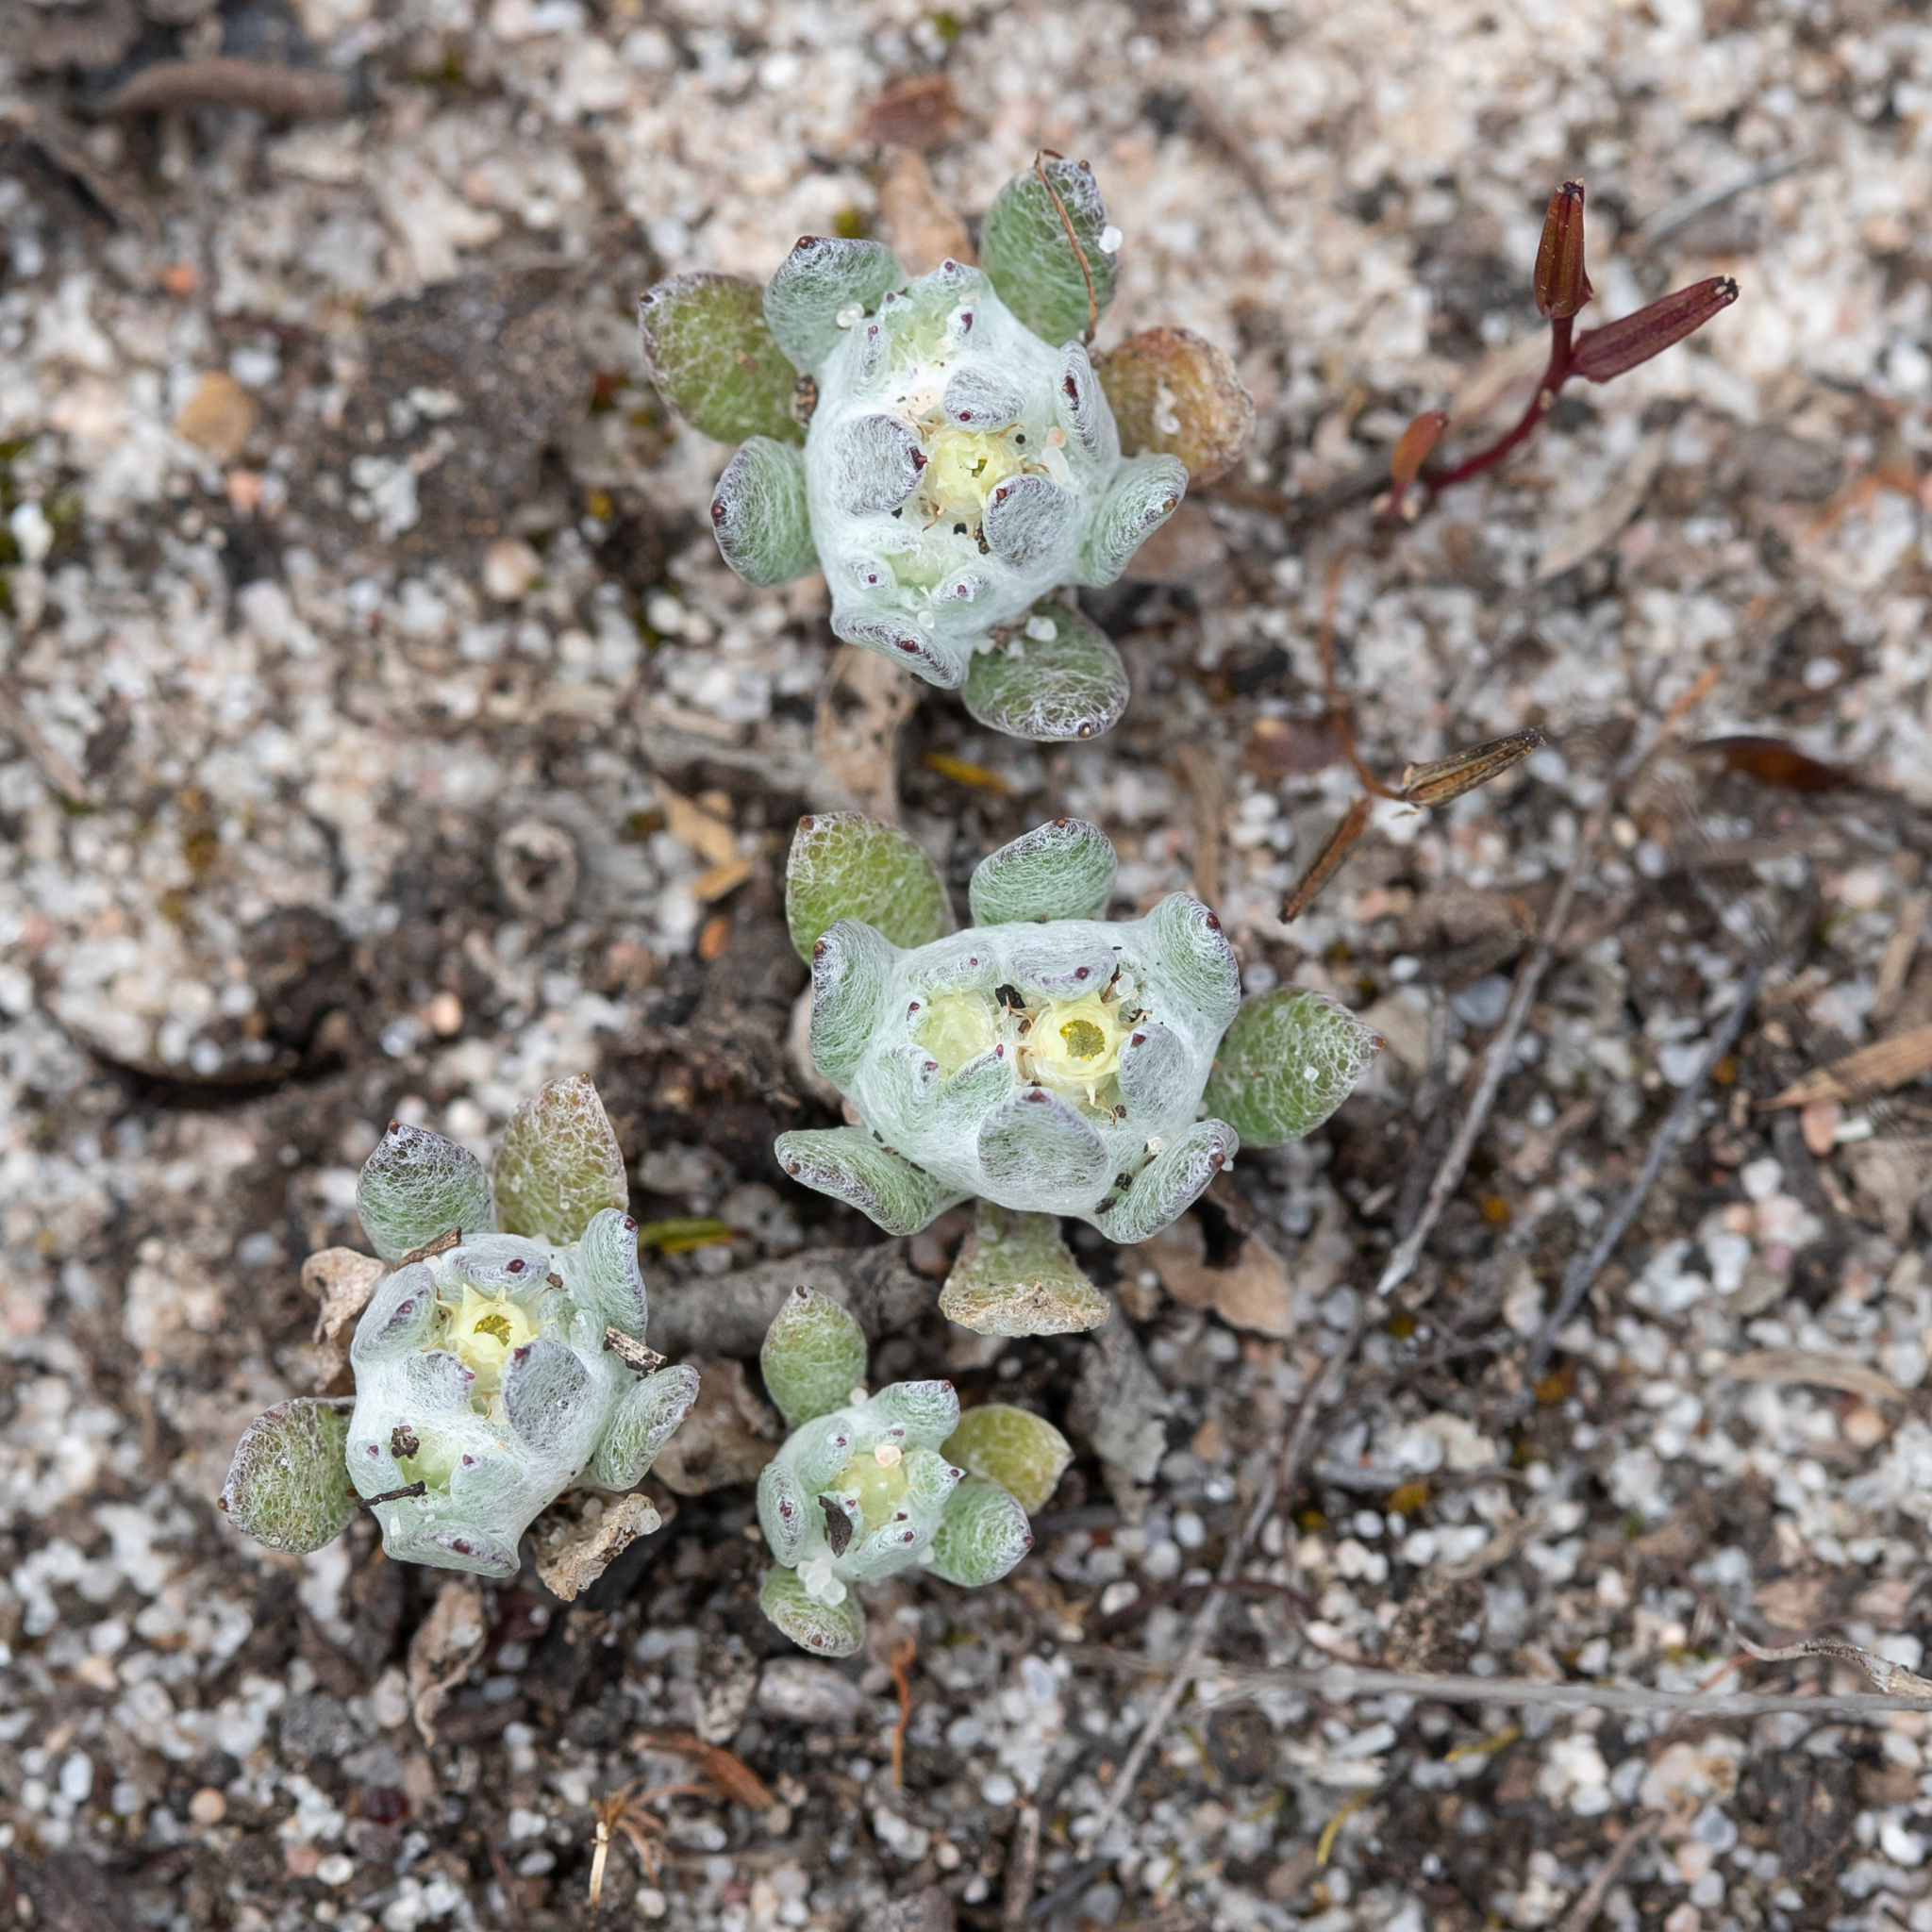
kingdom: Plantae
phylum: Tracheophyta
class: Magnoliopsida
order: Asterales
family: Asteraceae
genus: Actinobole
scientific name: Actinobole uliginosum
